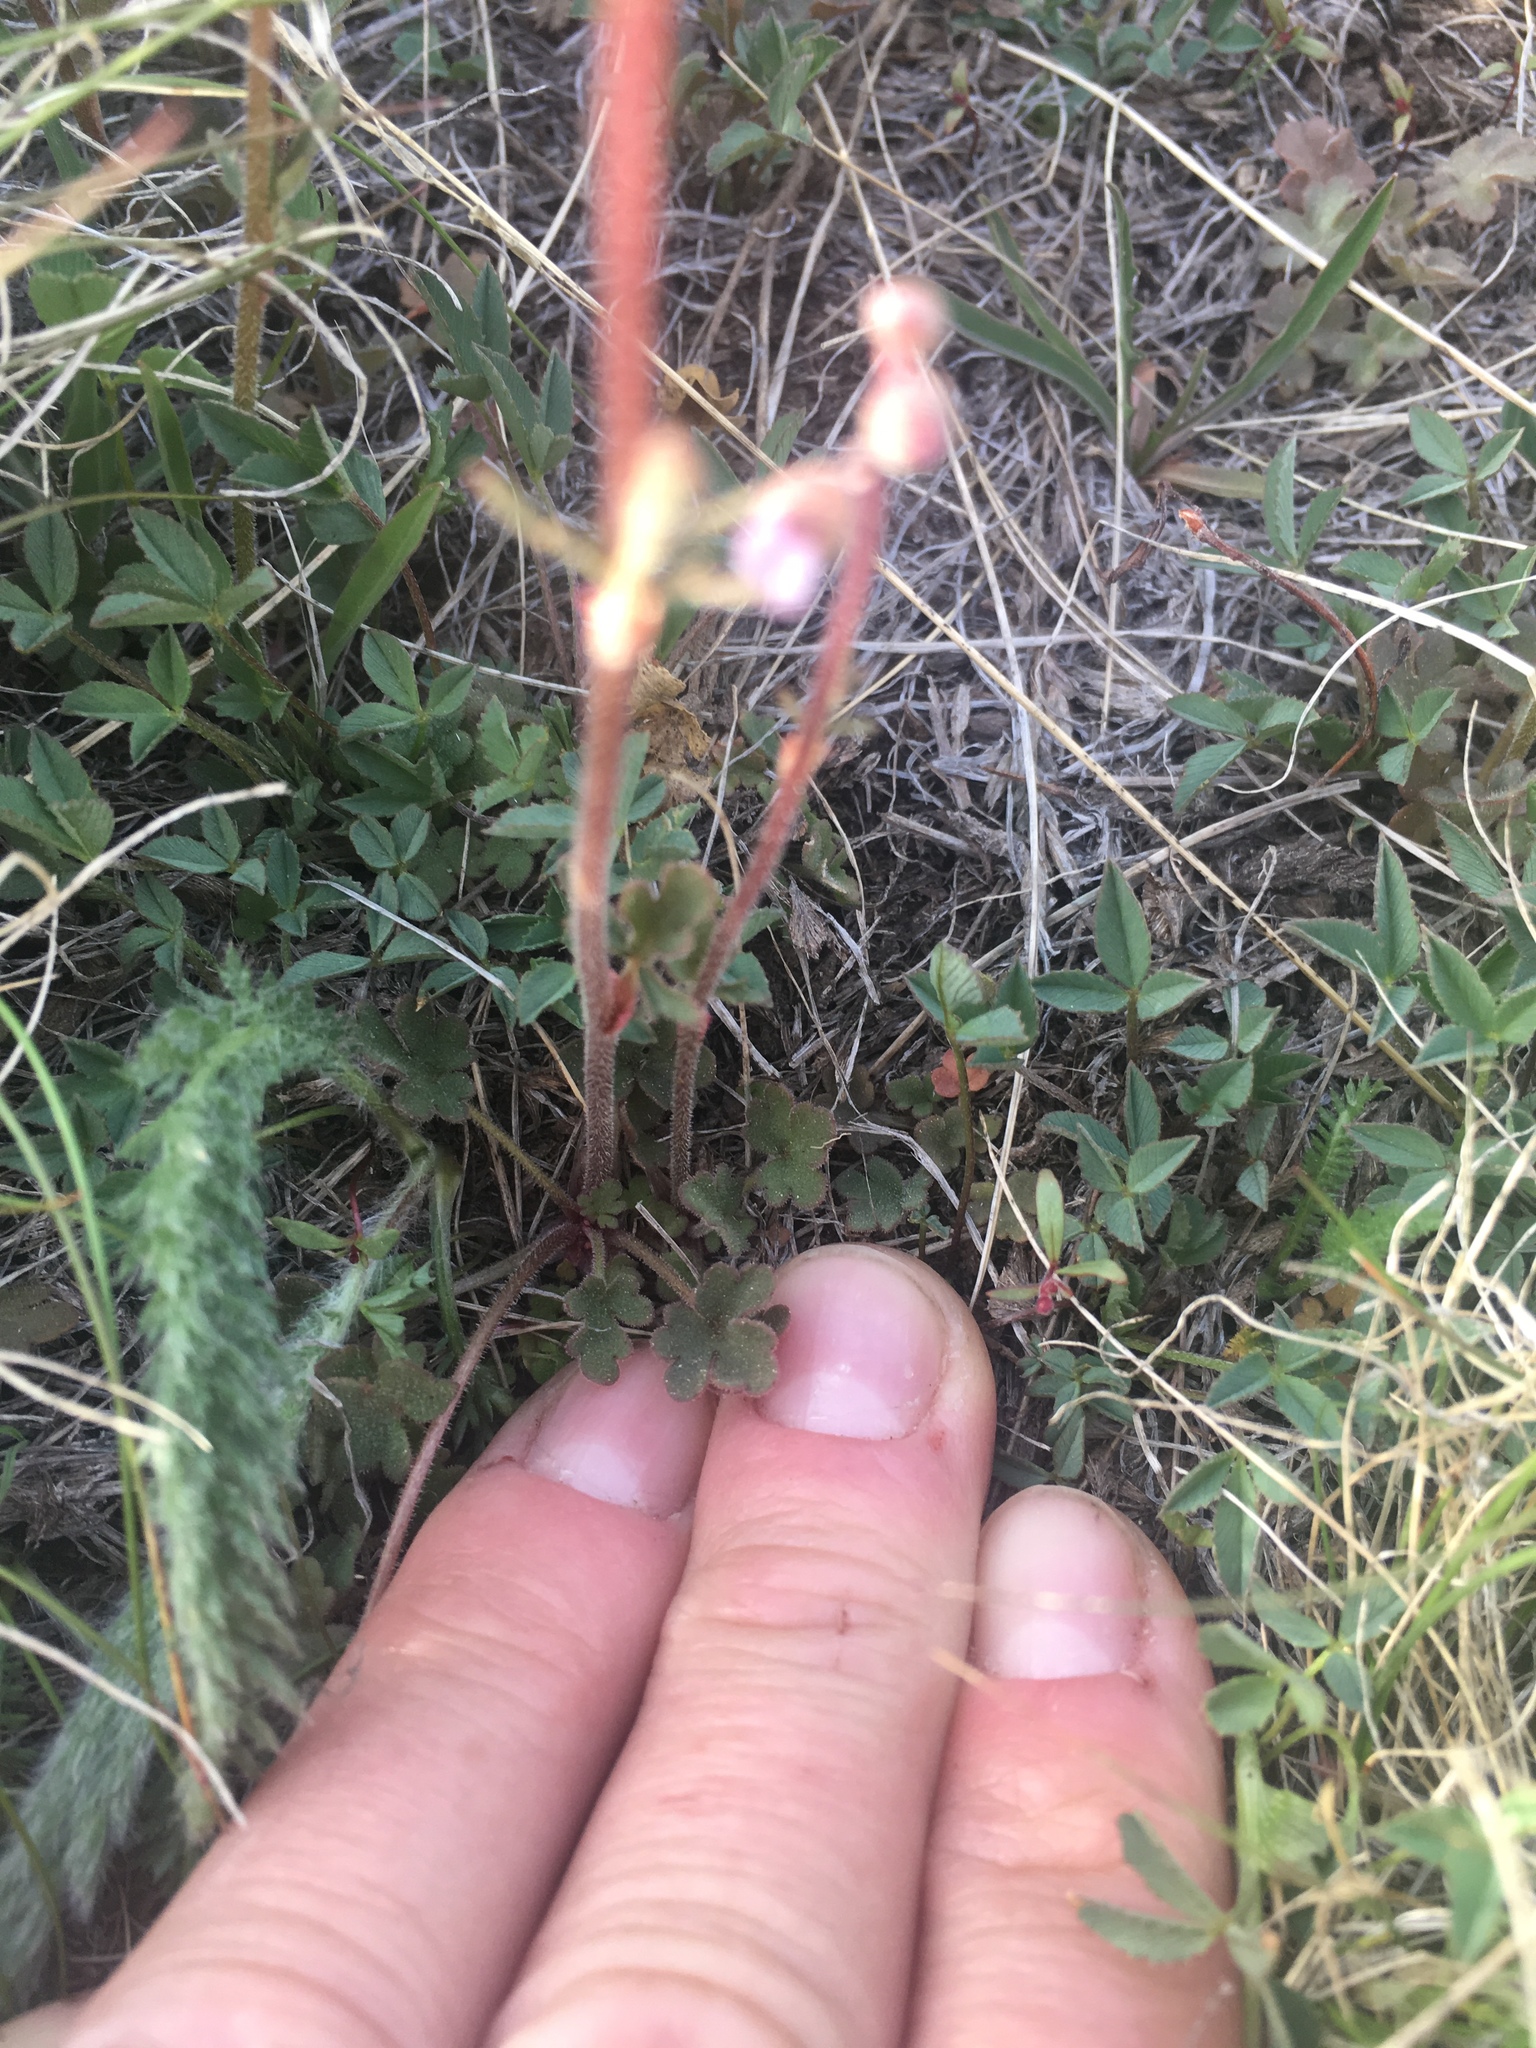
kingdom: Plantae
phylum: Tracheophyta
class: Magnoliopsida
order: Saxifragales
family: Saxifragaceae
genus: Lithophragma
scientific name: Lithophragma glabrum
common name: Bulbous prairie-star
